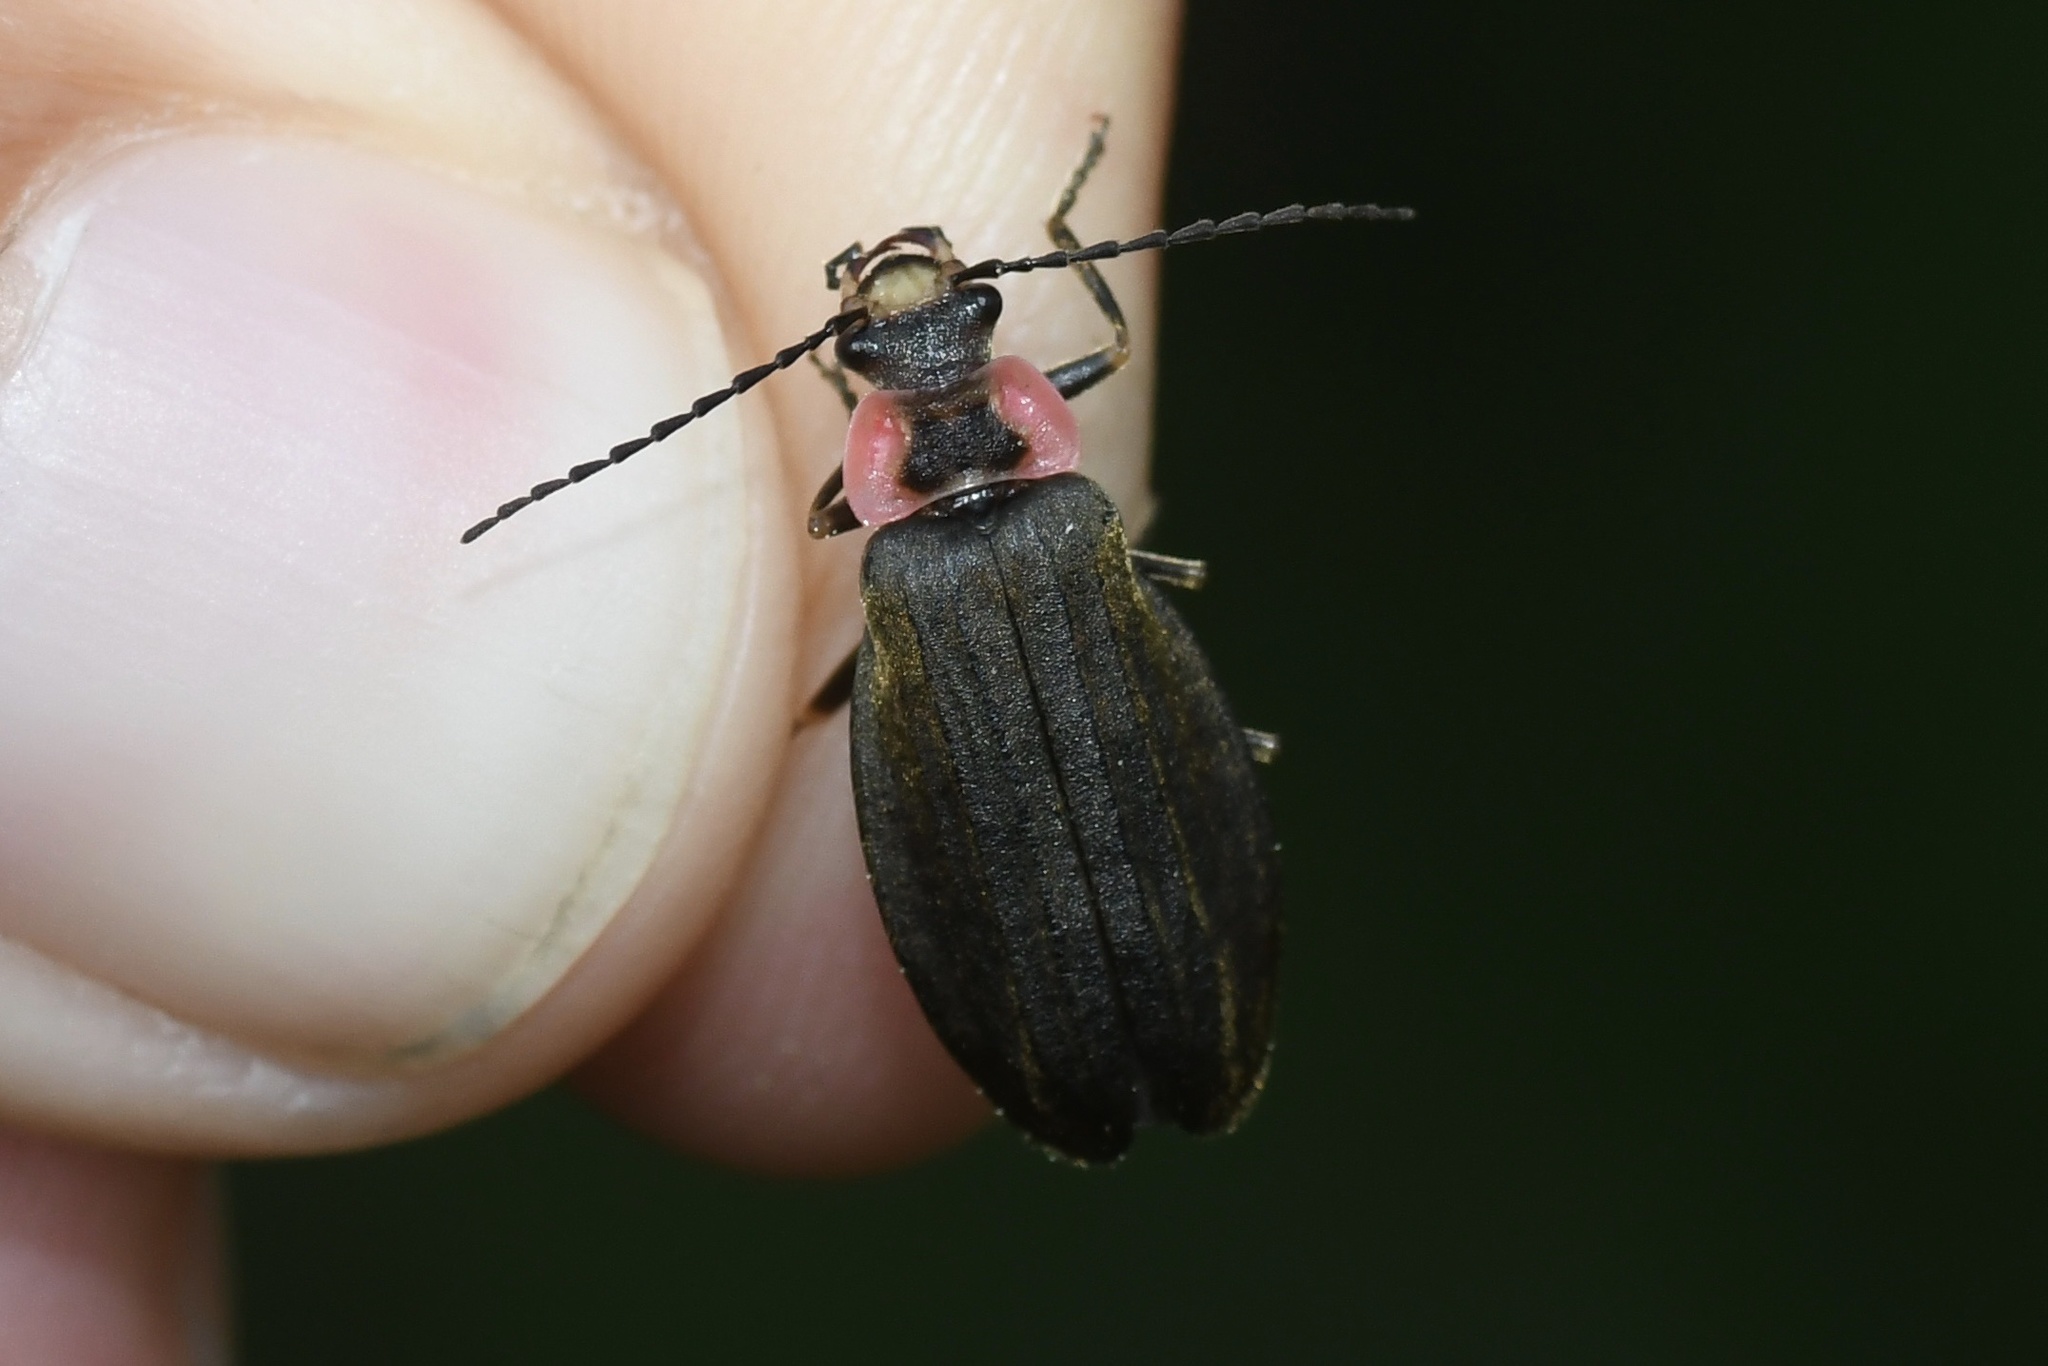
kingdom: Animalia
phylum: Arthropoda
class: Insecta
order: Coleoptera
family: Cantharidae
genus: Podabrus
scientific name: Podabrus tricostatus
